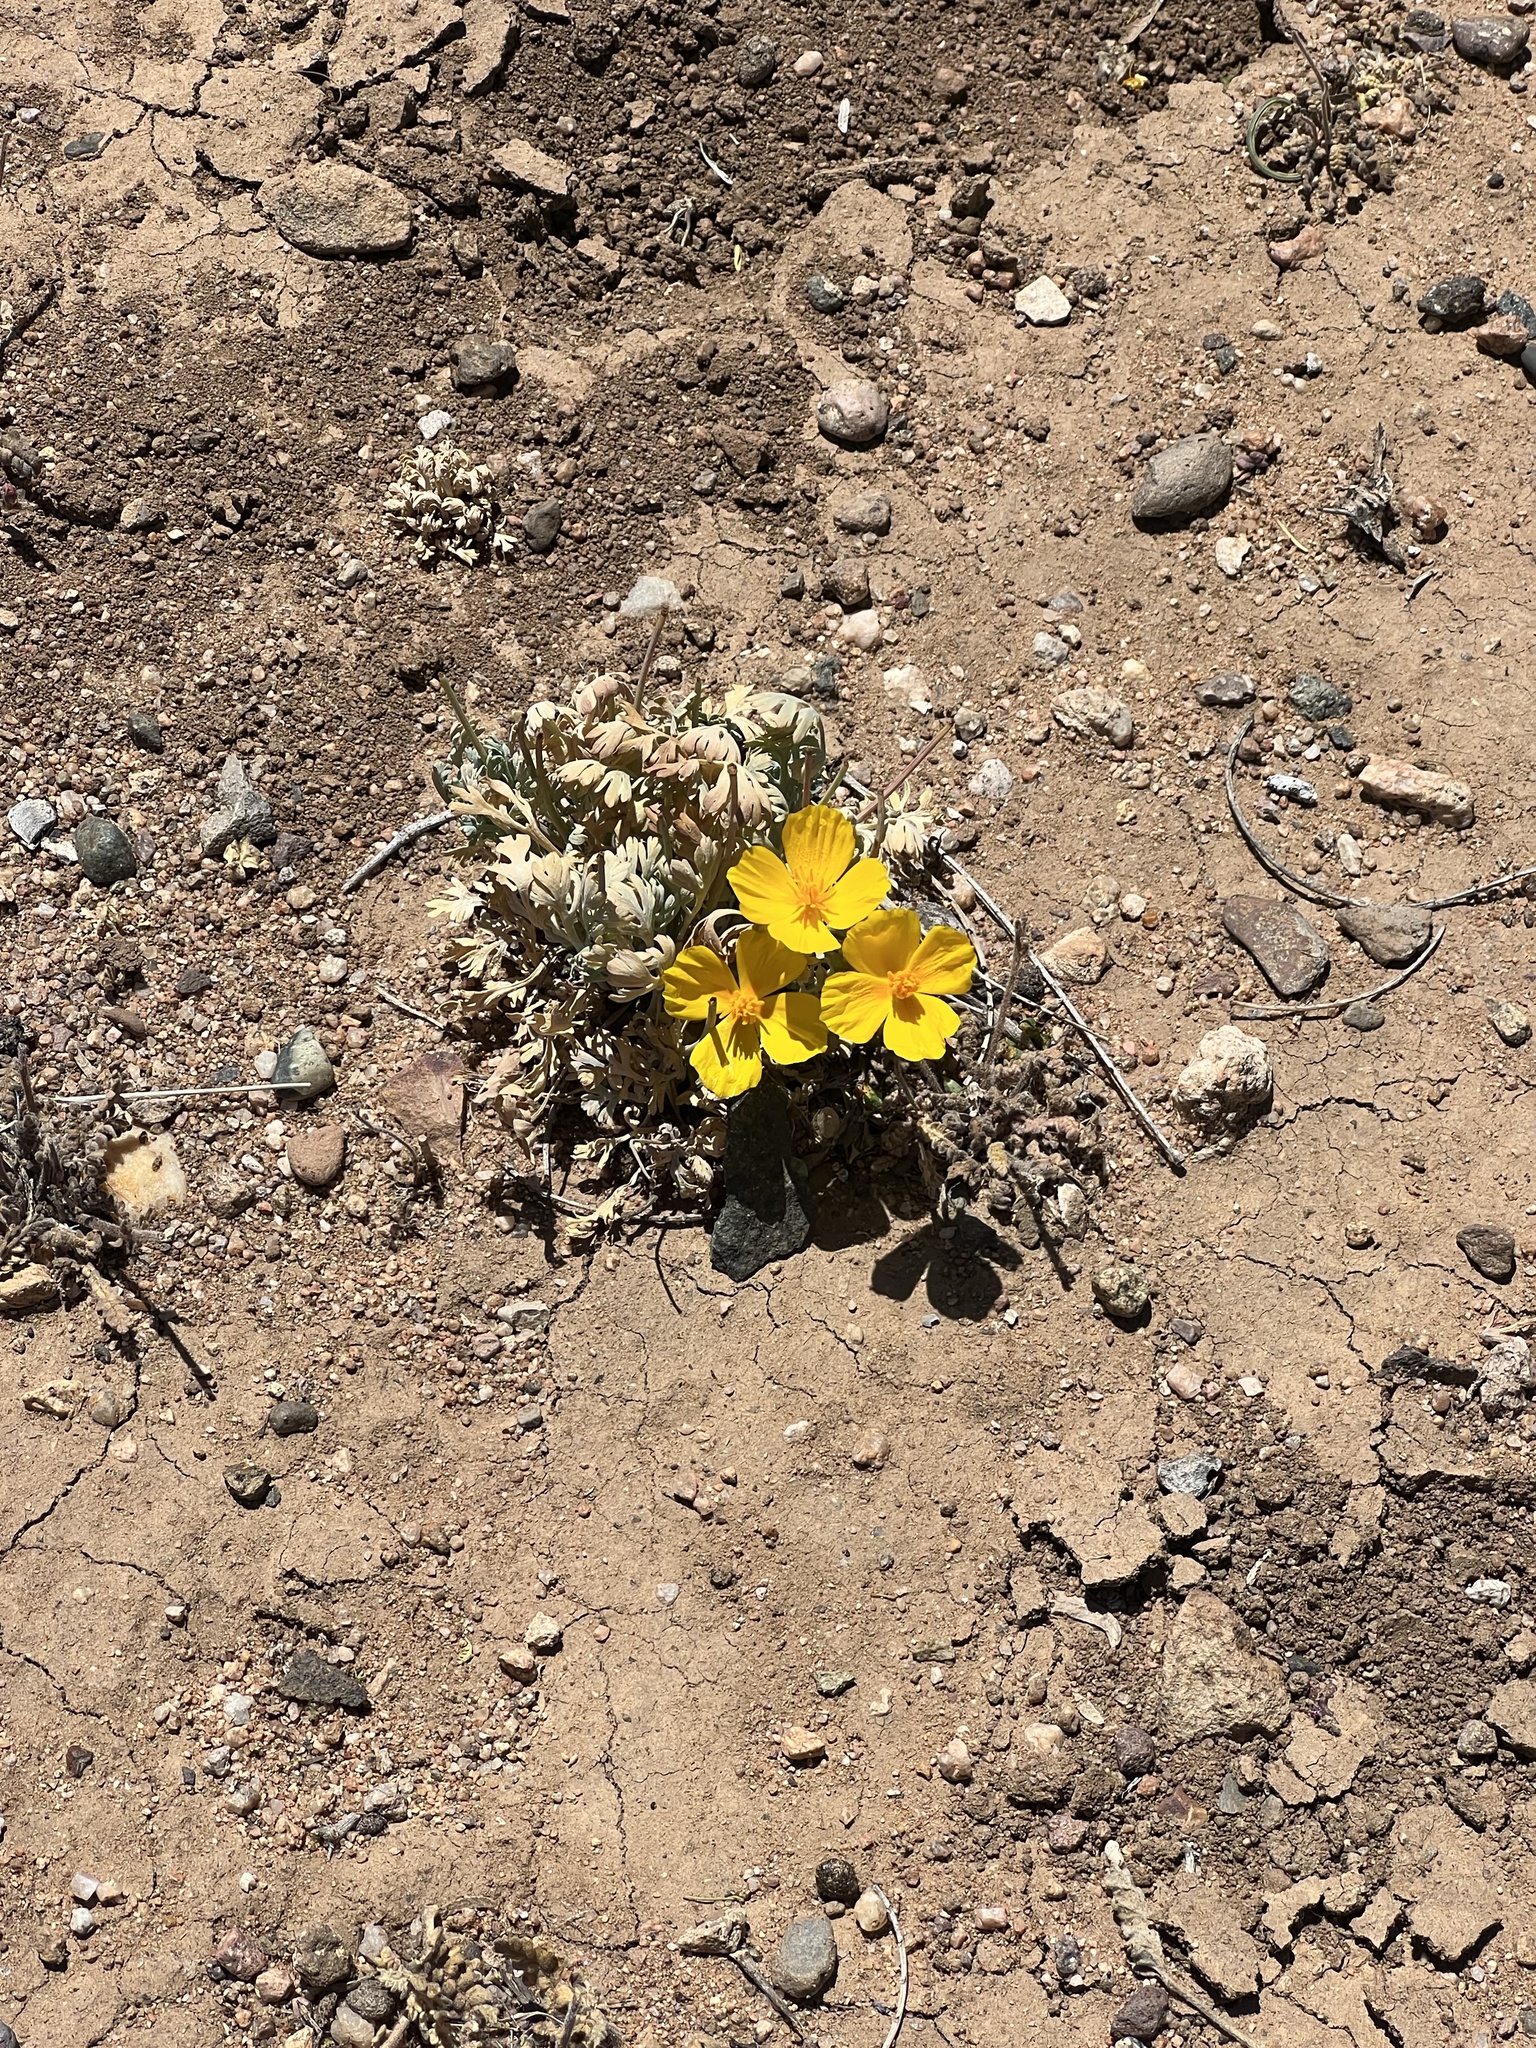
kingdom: Plantae
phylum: Tracheophyta
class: Magnoliopsida
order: Ranunculales
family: Papaveraceae
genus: Eschscholzia
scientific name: Eschscholzia californica
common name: California poppy
